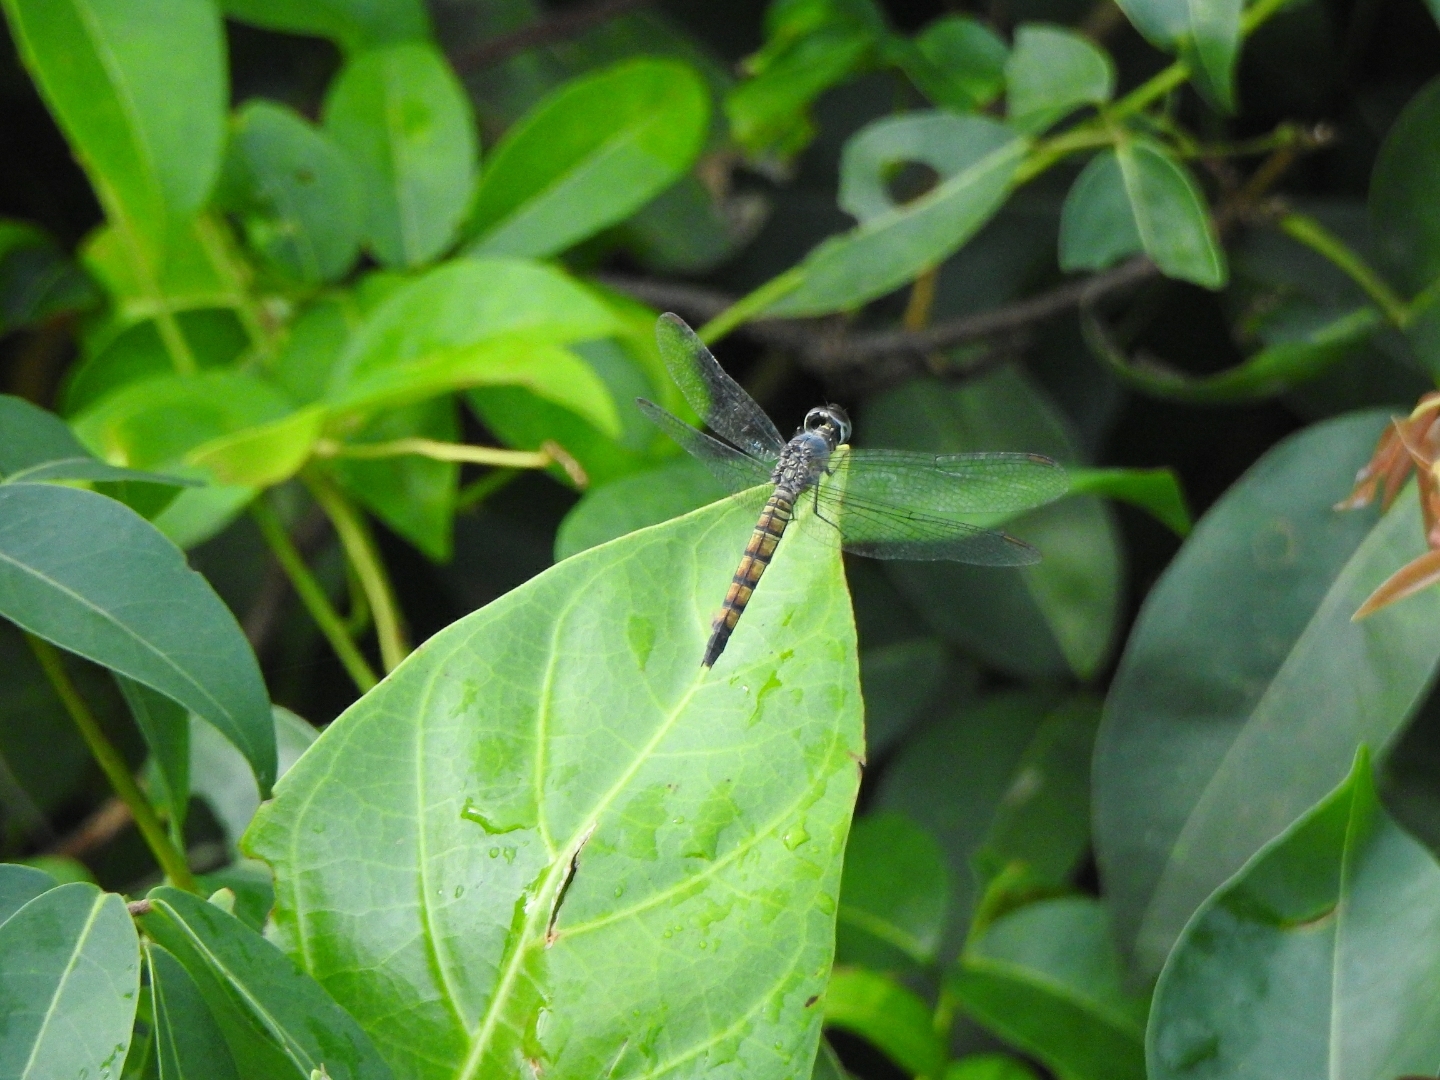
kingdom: Animalia
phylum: Arthropoda
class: Insecta
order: Odonata
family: Libellulidae
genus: Brachydiplax
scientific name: Brachydiplax chalybea
